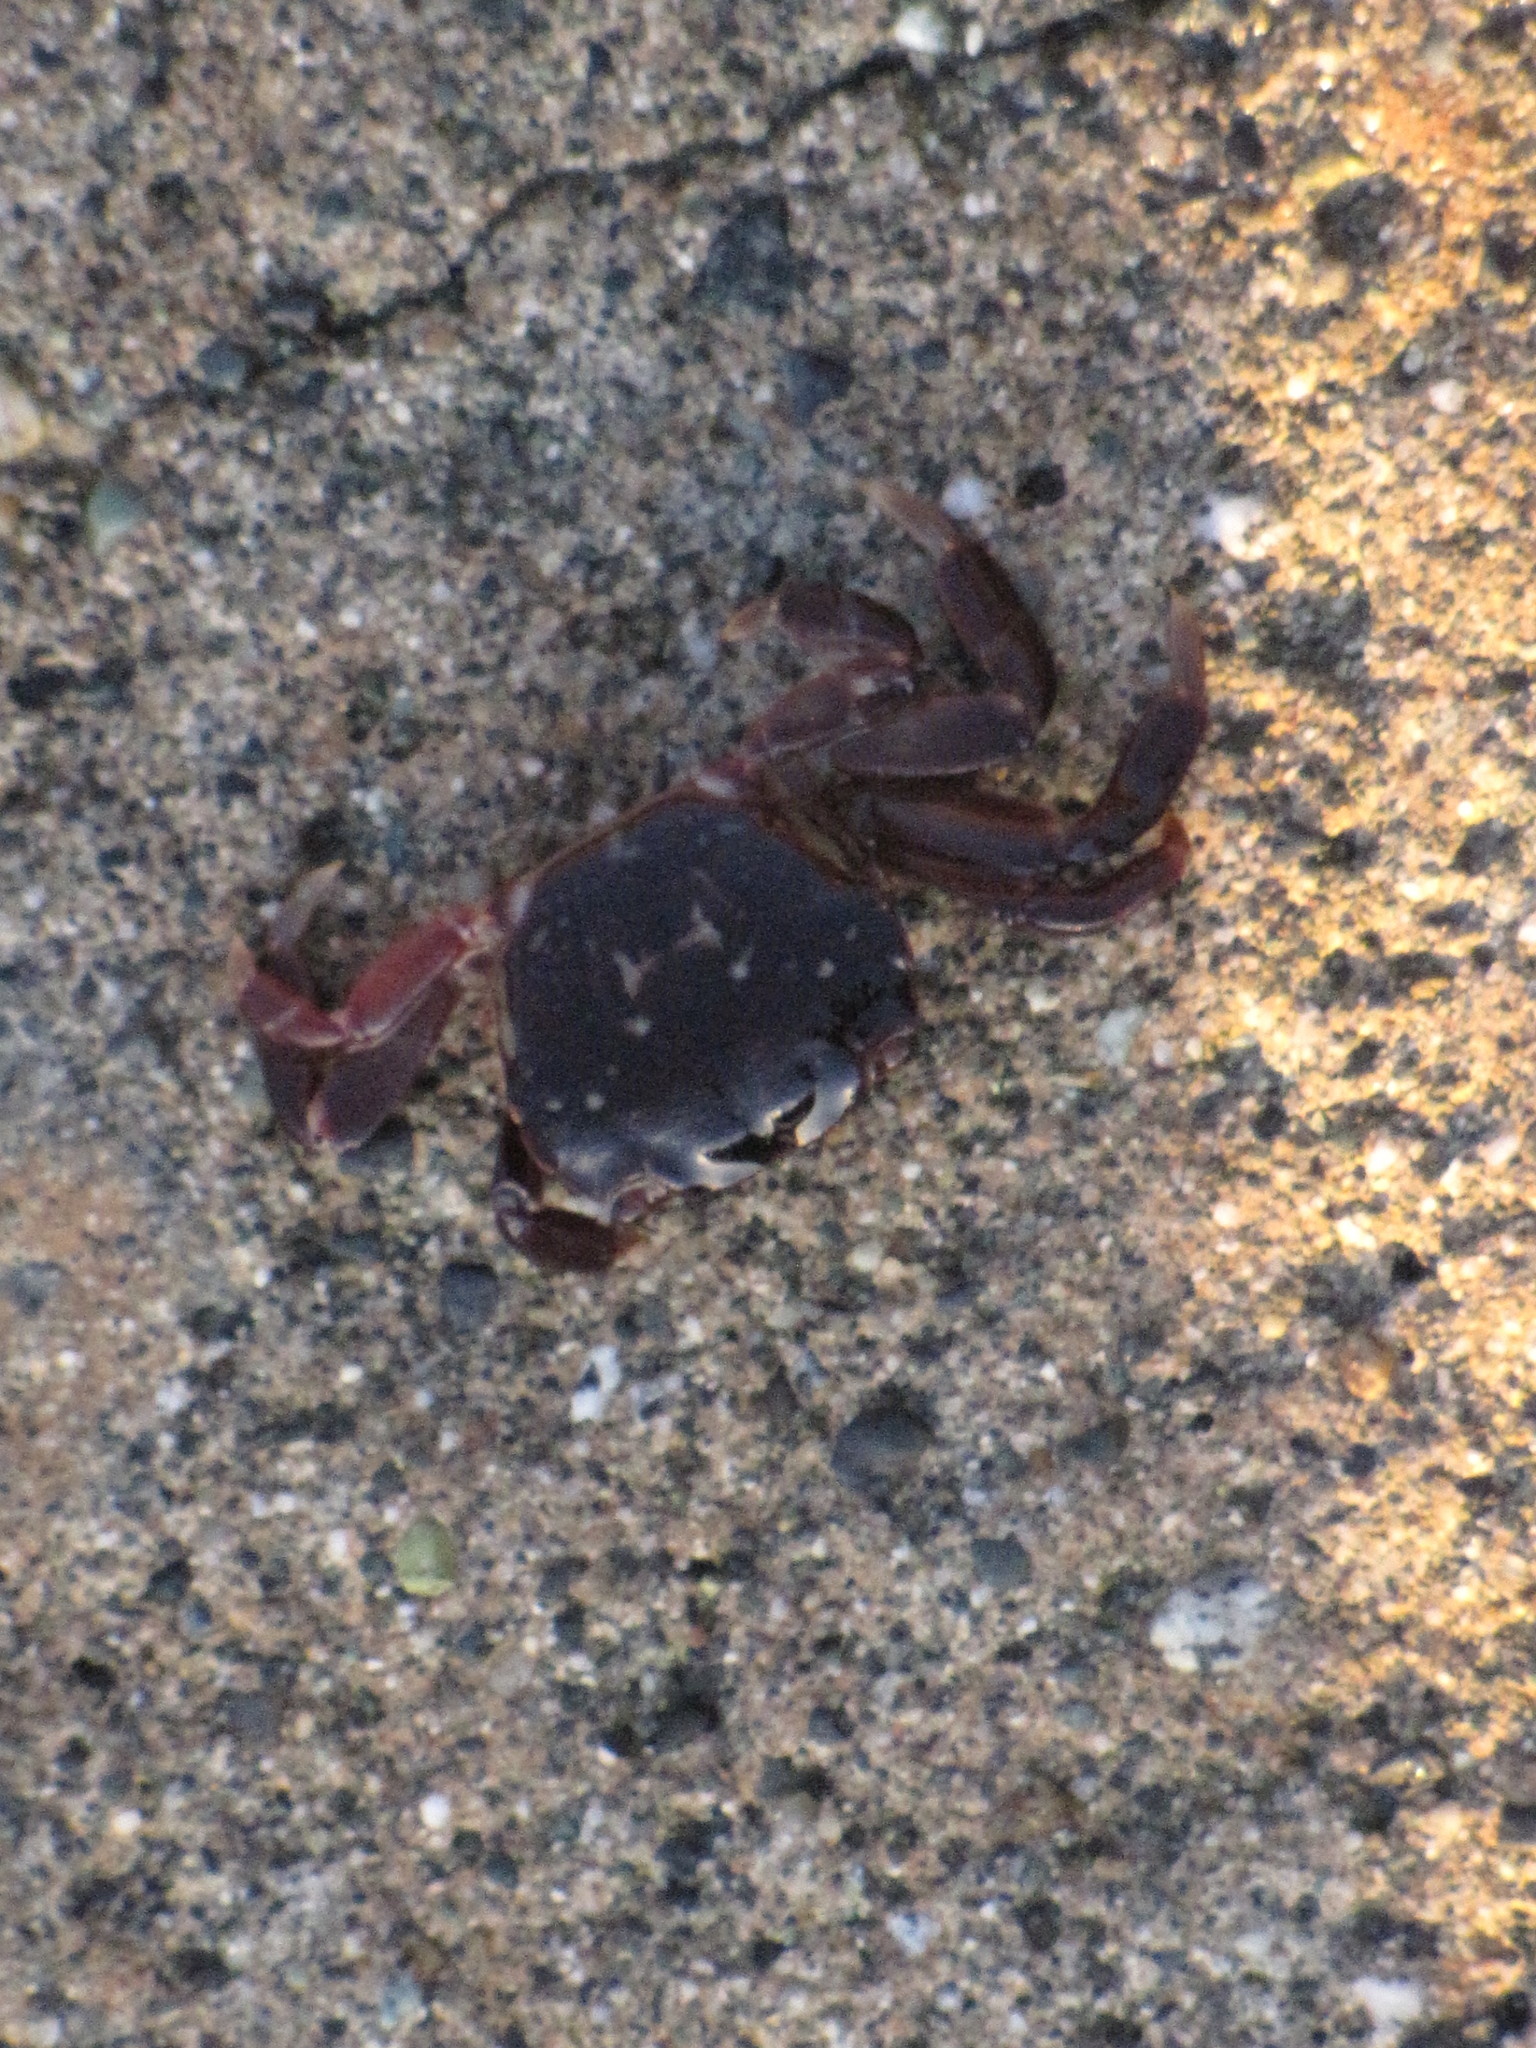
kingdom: Animalia
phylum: Arthropoda
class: Malacostraca
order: Decapoda
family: Varunidae
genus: Hemigrapsus
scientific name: Hemigrapsus nudus
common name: Purple shore crab
